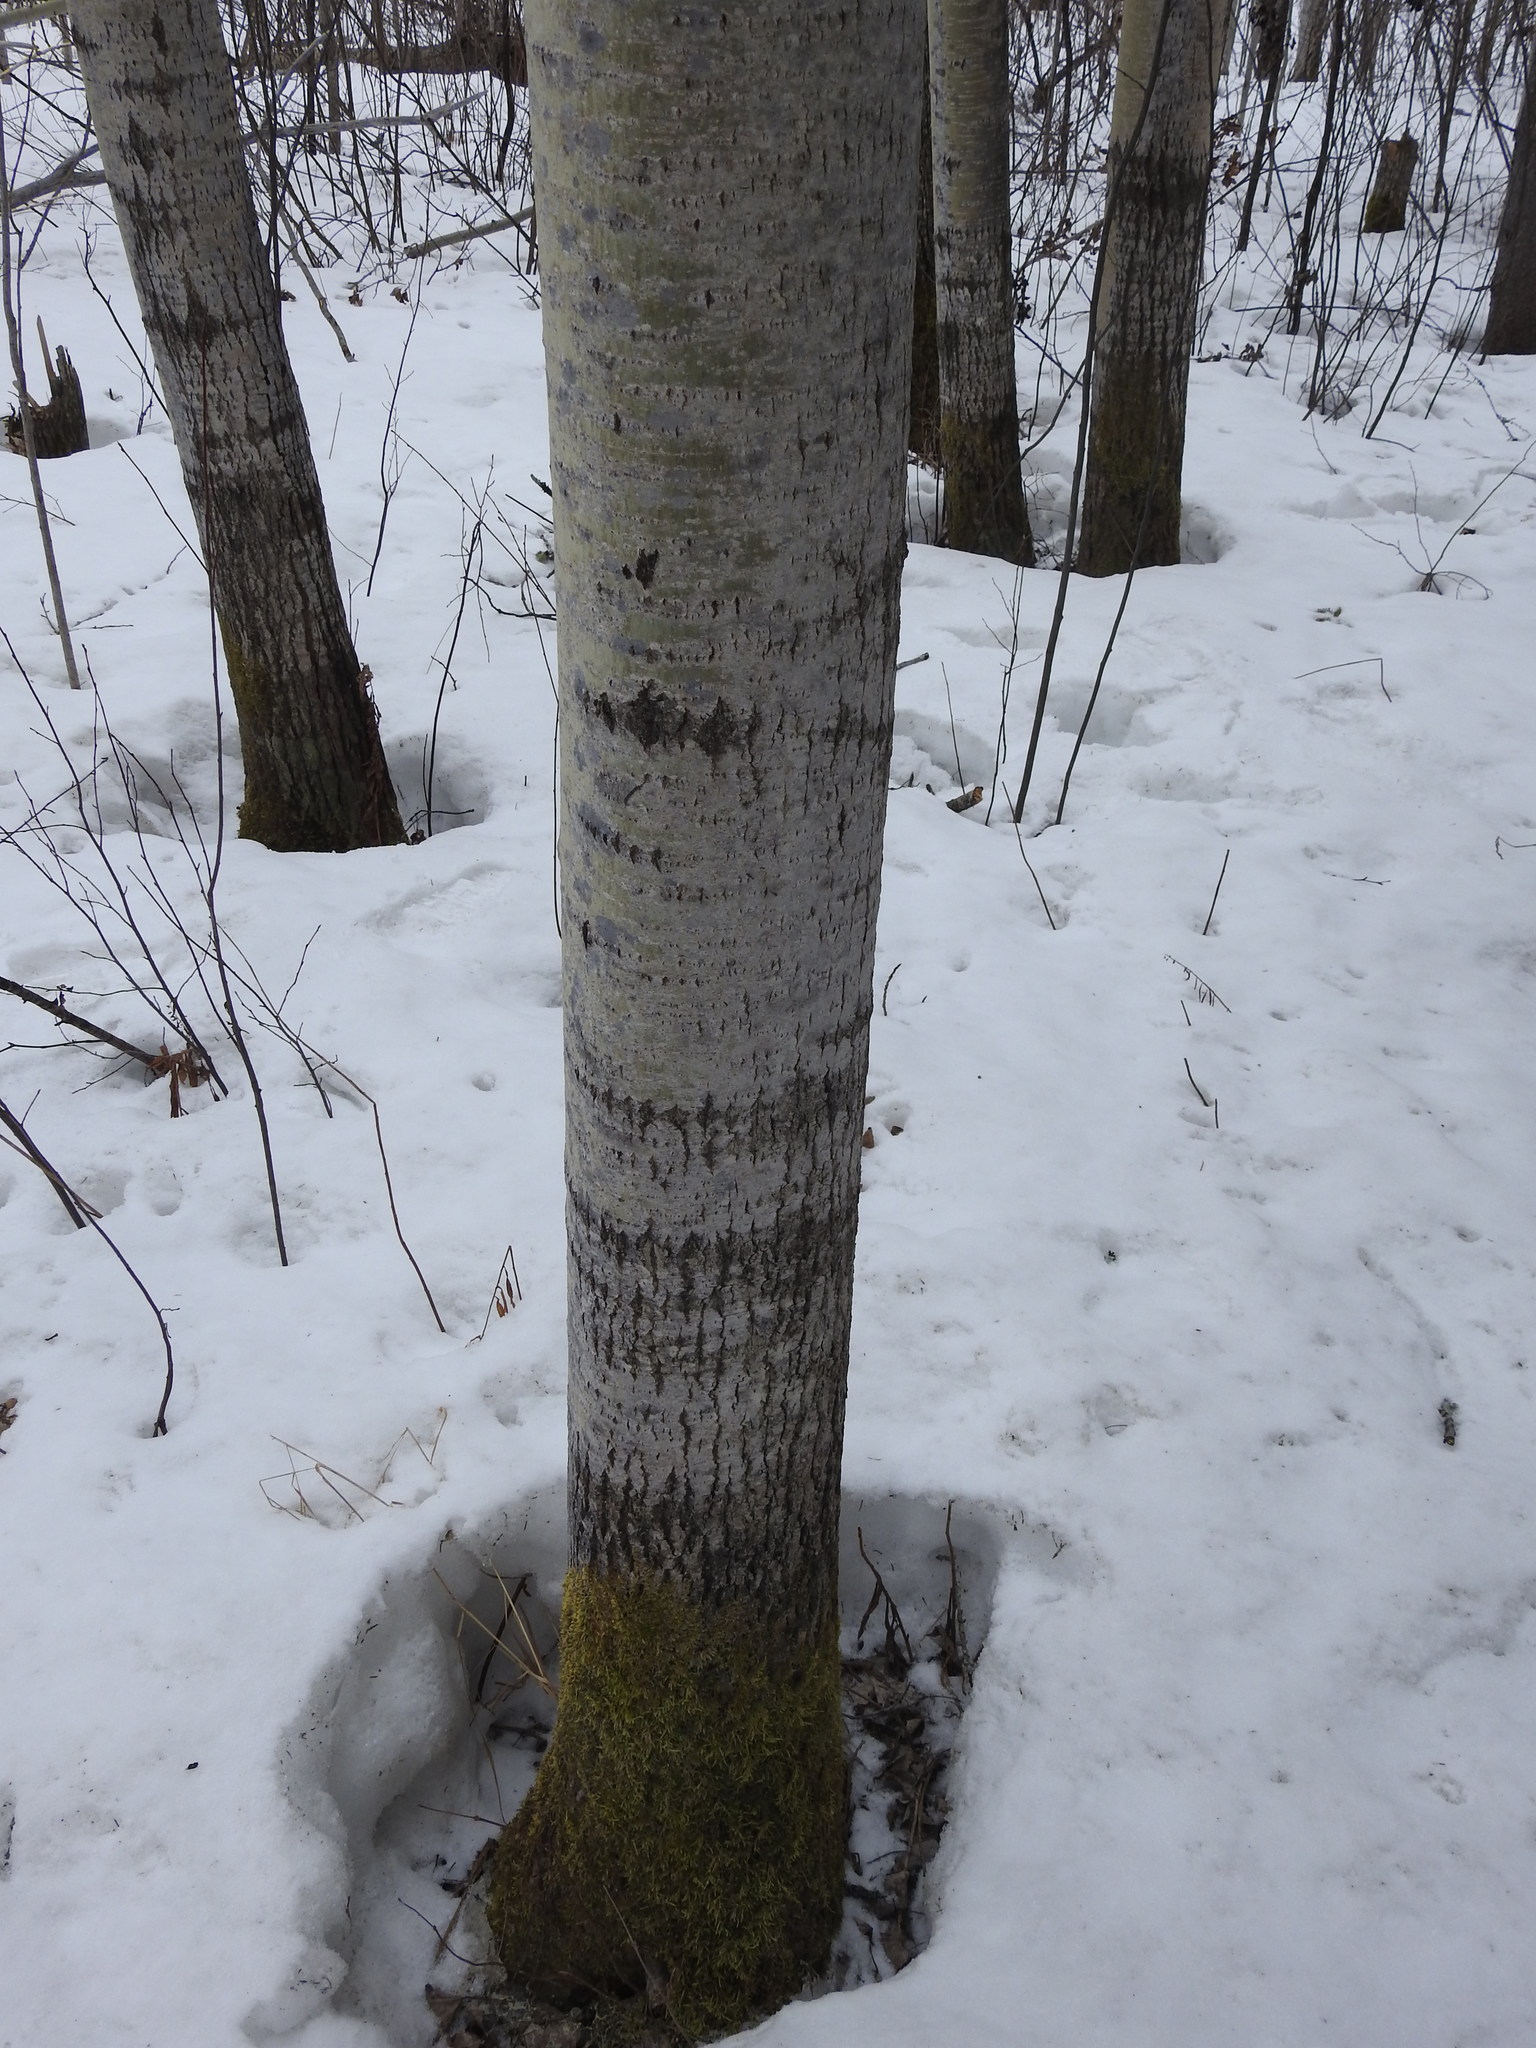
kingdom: Plantae
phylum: Tracheophyta
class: Magnoliopsida
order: Malpighiales
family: Salicaceae
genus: Populus
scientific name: Populus tremuloides
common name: Quaking aspen
